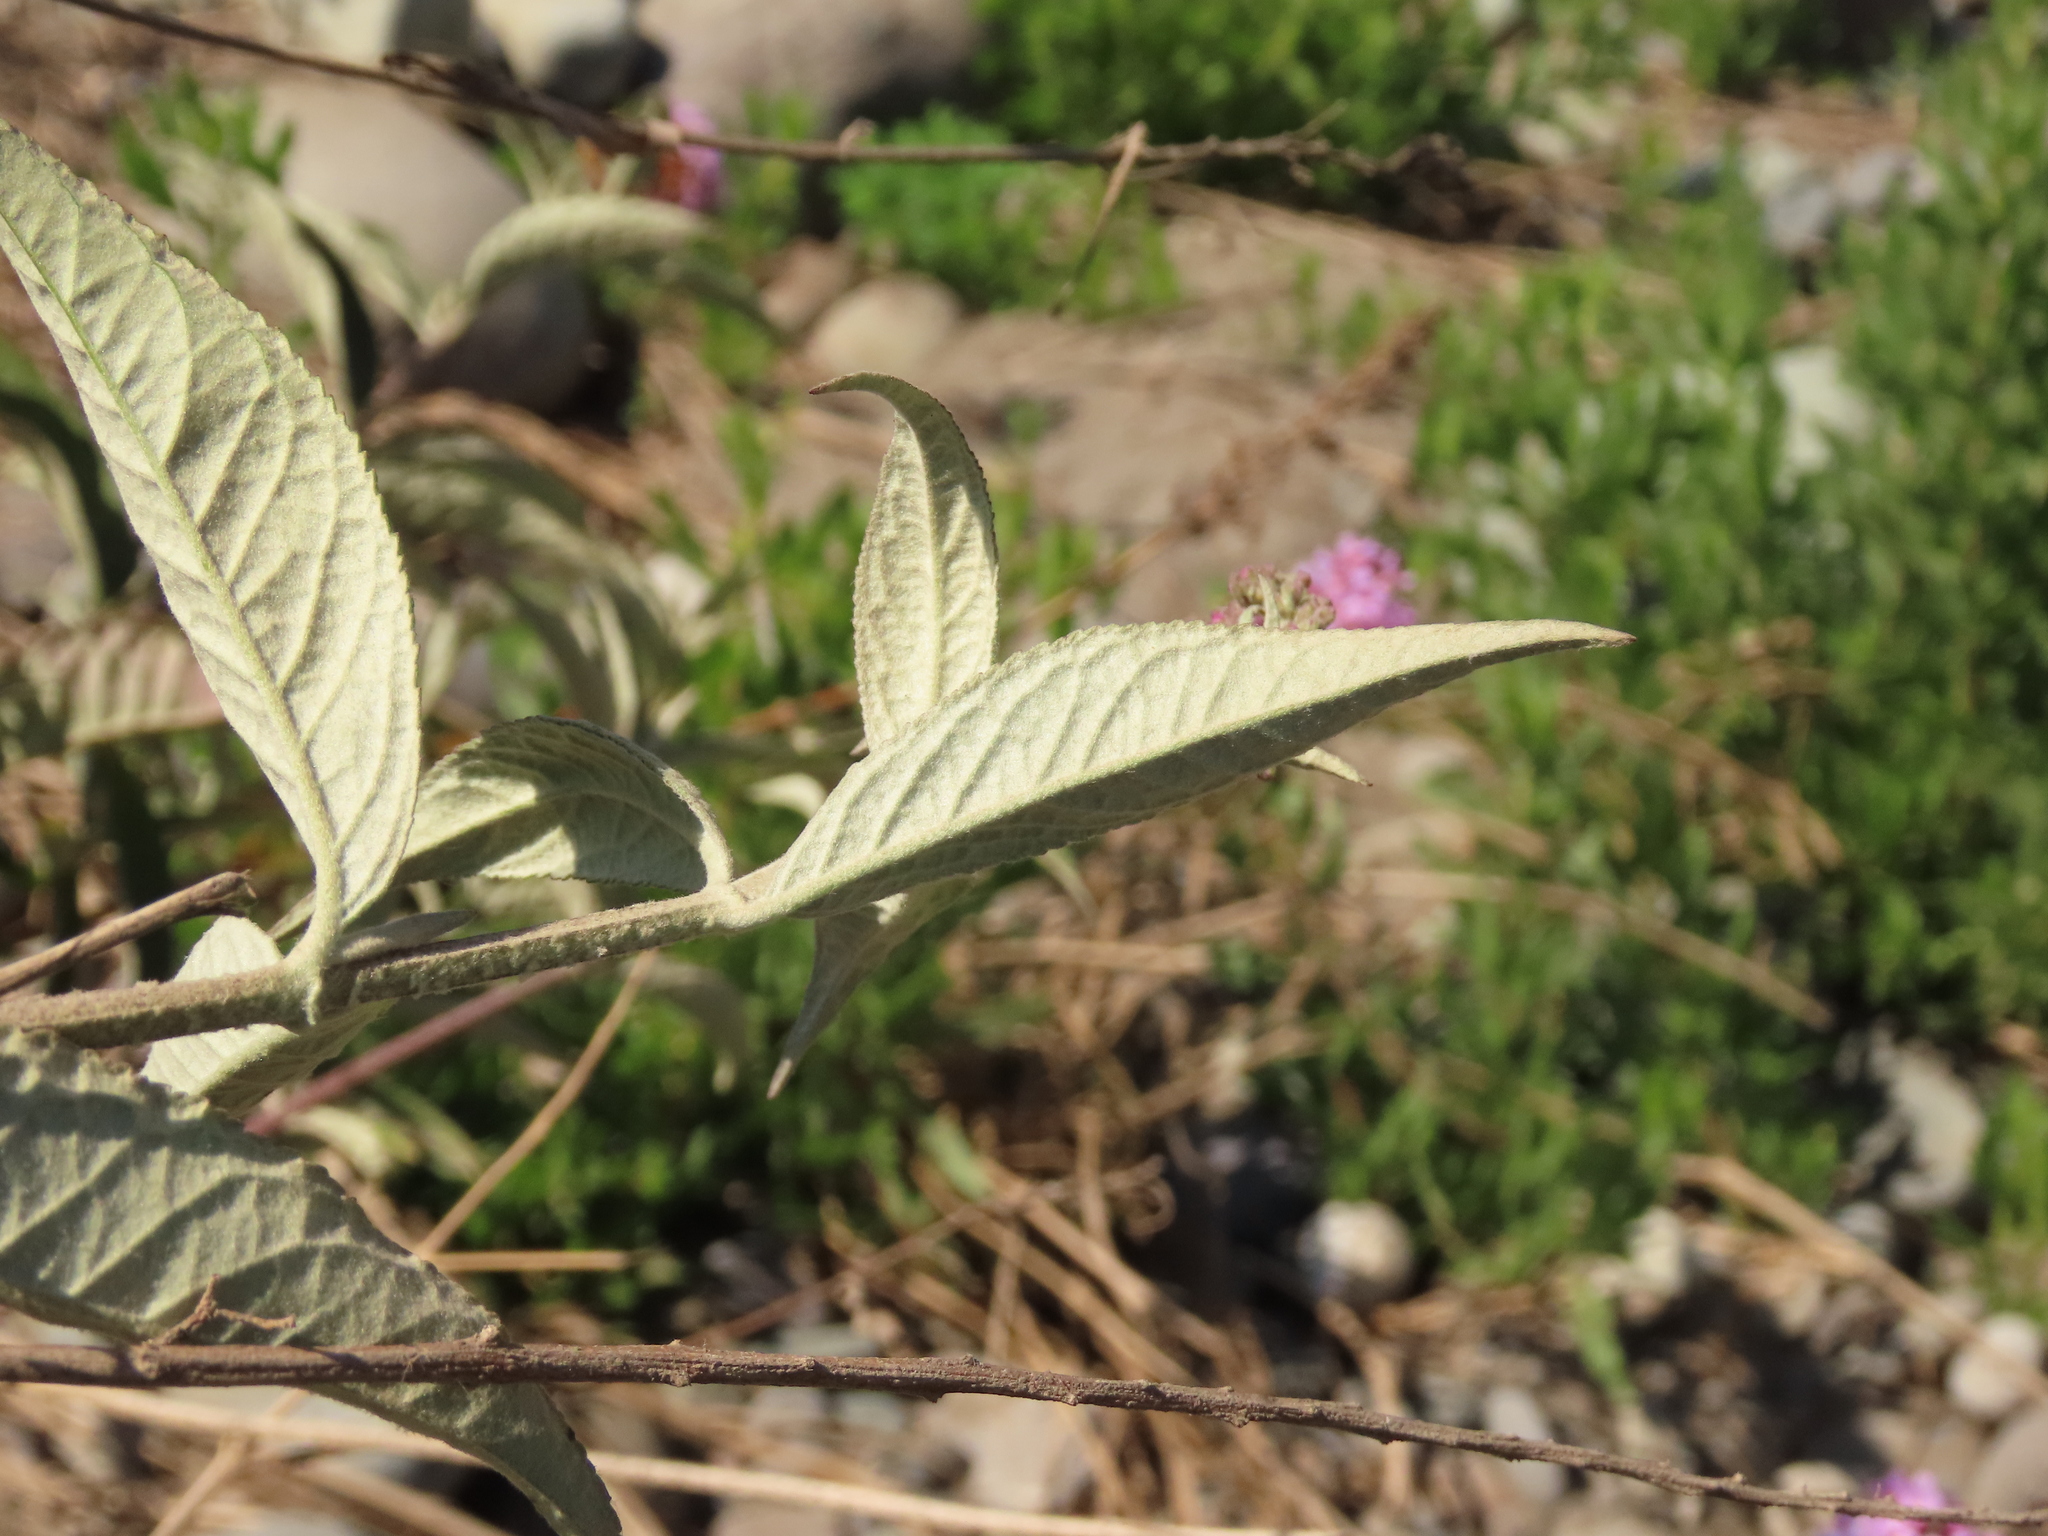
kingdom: Plantae
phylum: Tracheophyta
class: Magnoliopsida
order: Lamiales
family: Scrophulariaceae
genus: Buddleja
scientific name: Buddleja davidii
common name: Butterfly-bush
